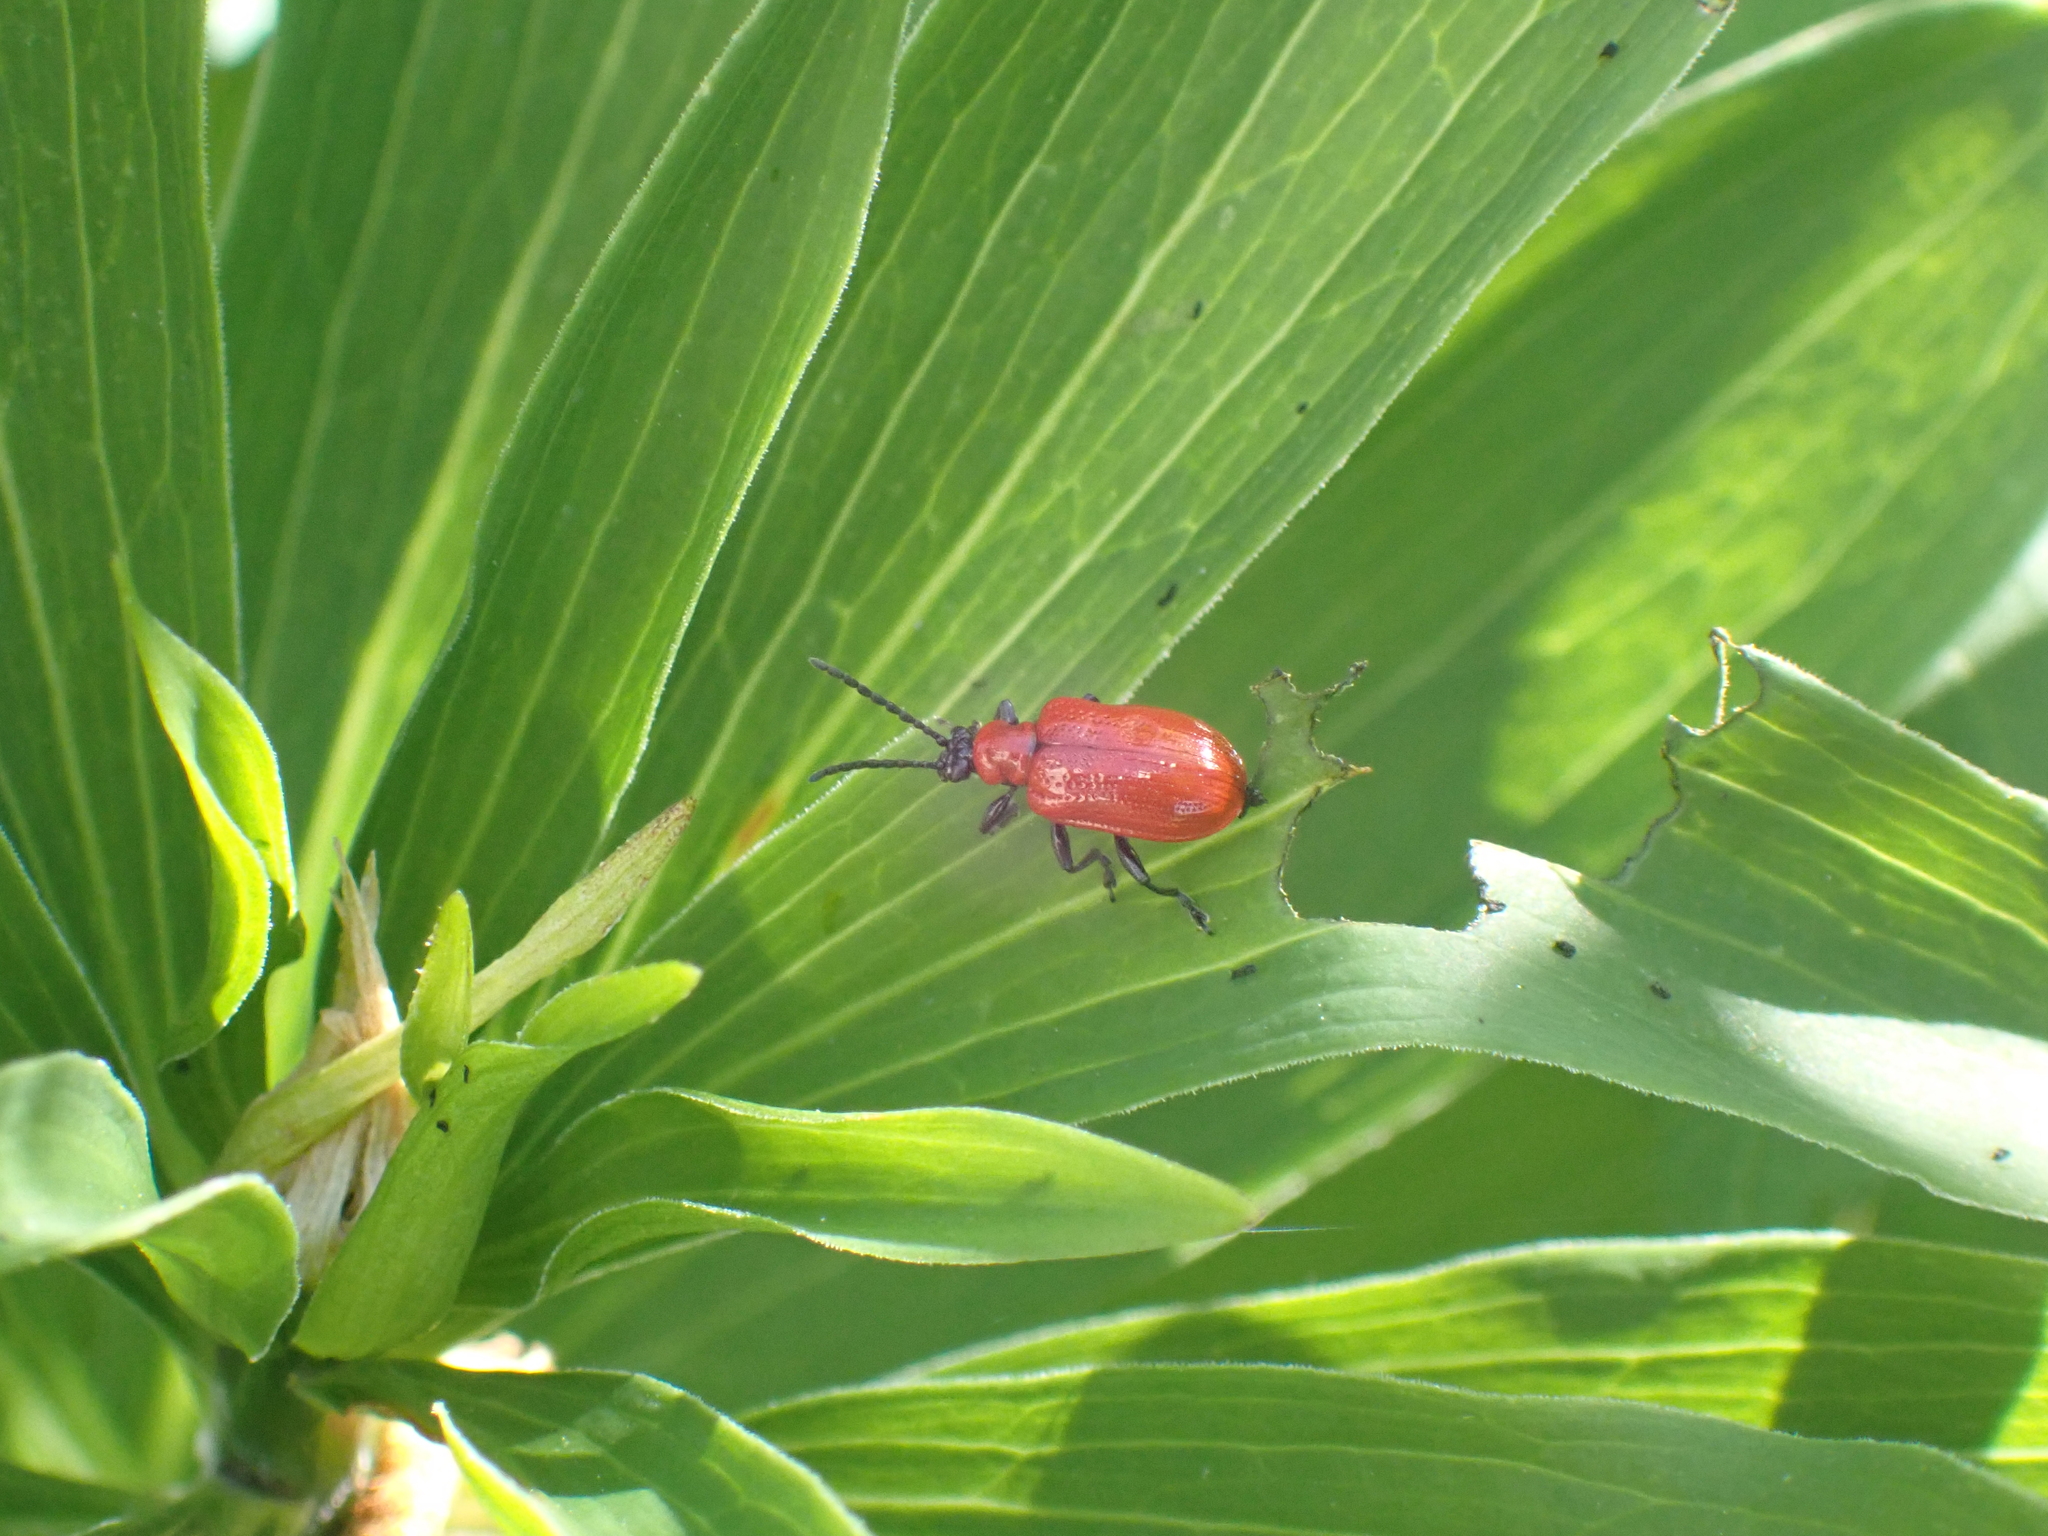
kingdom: Animalia
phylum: Arthropoda
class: Insecta
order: Coleoptera
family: Chrysomelidae
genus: Lilioceris
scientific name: Lilioceris lilii
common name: Lily beetle
